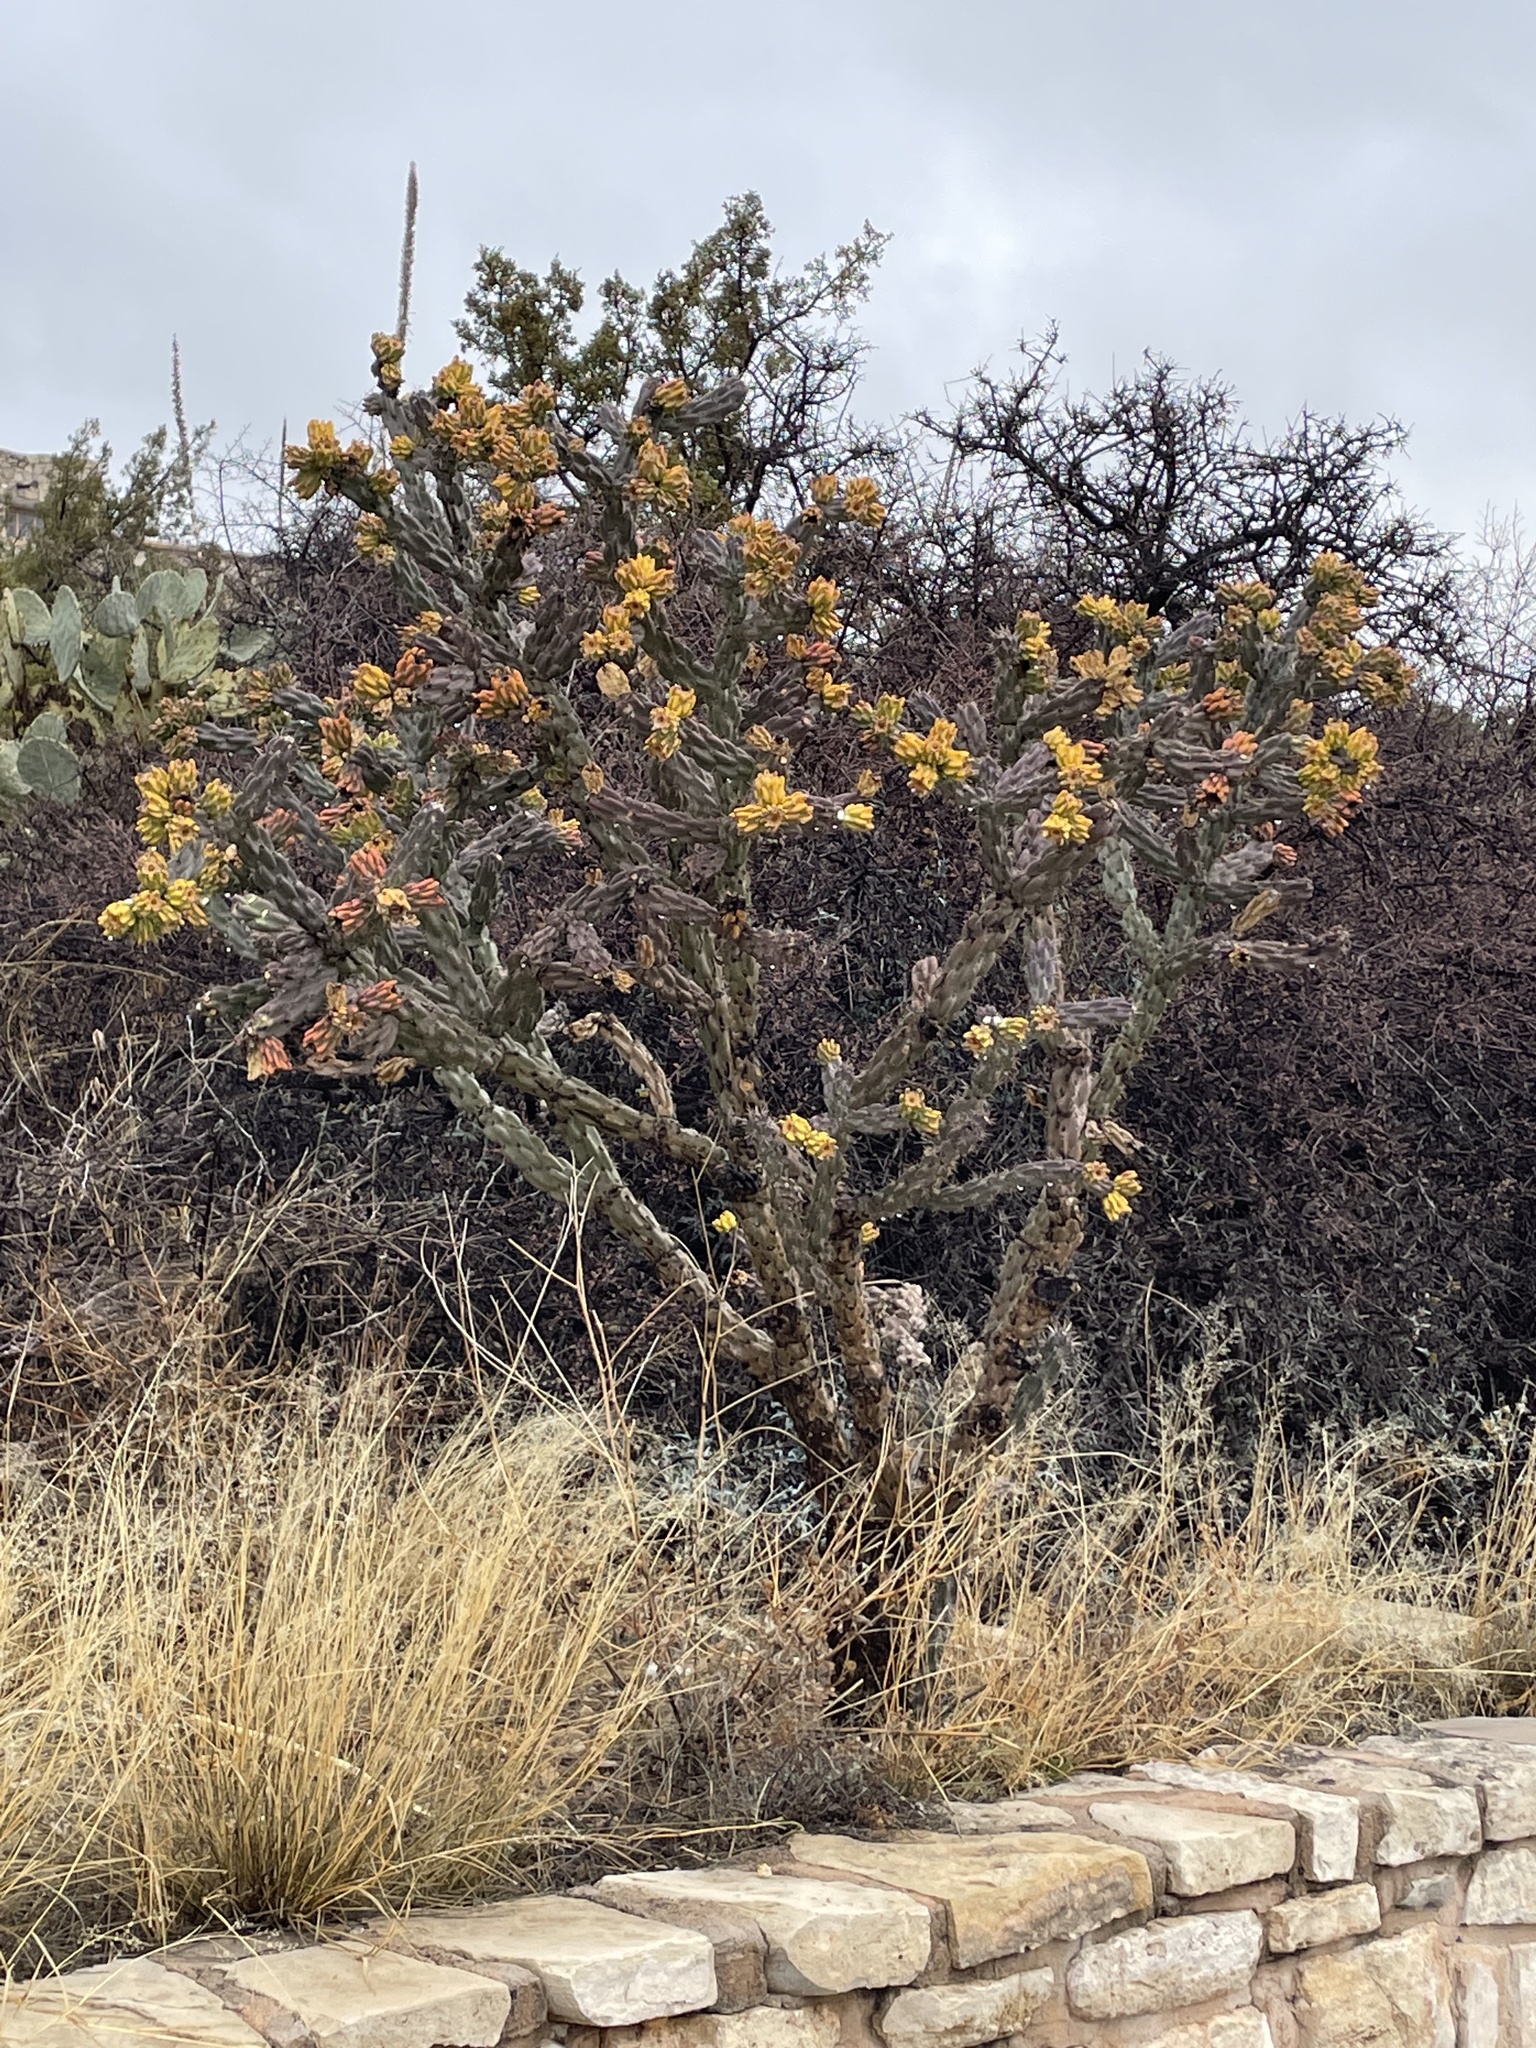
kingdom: Plantae
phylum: Tracheophyta
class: Magnoliopsida
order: Caryophyllales
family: Cactaceae
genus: Cylindropuntia
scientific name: Cylindropuntia imbricata
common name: Candelabrum cactus
